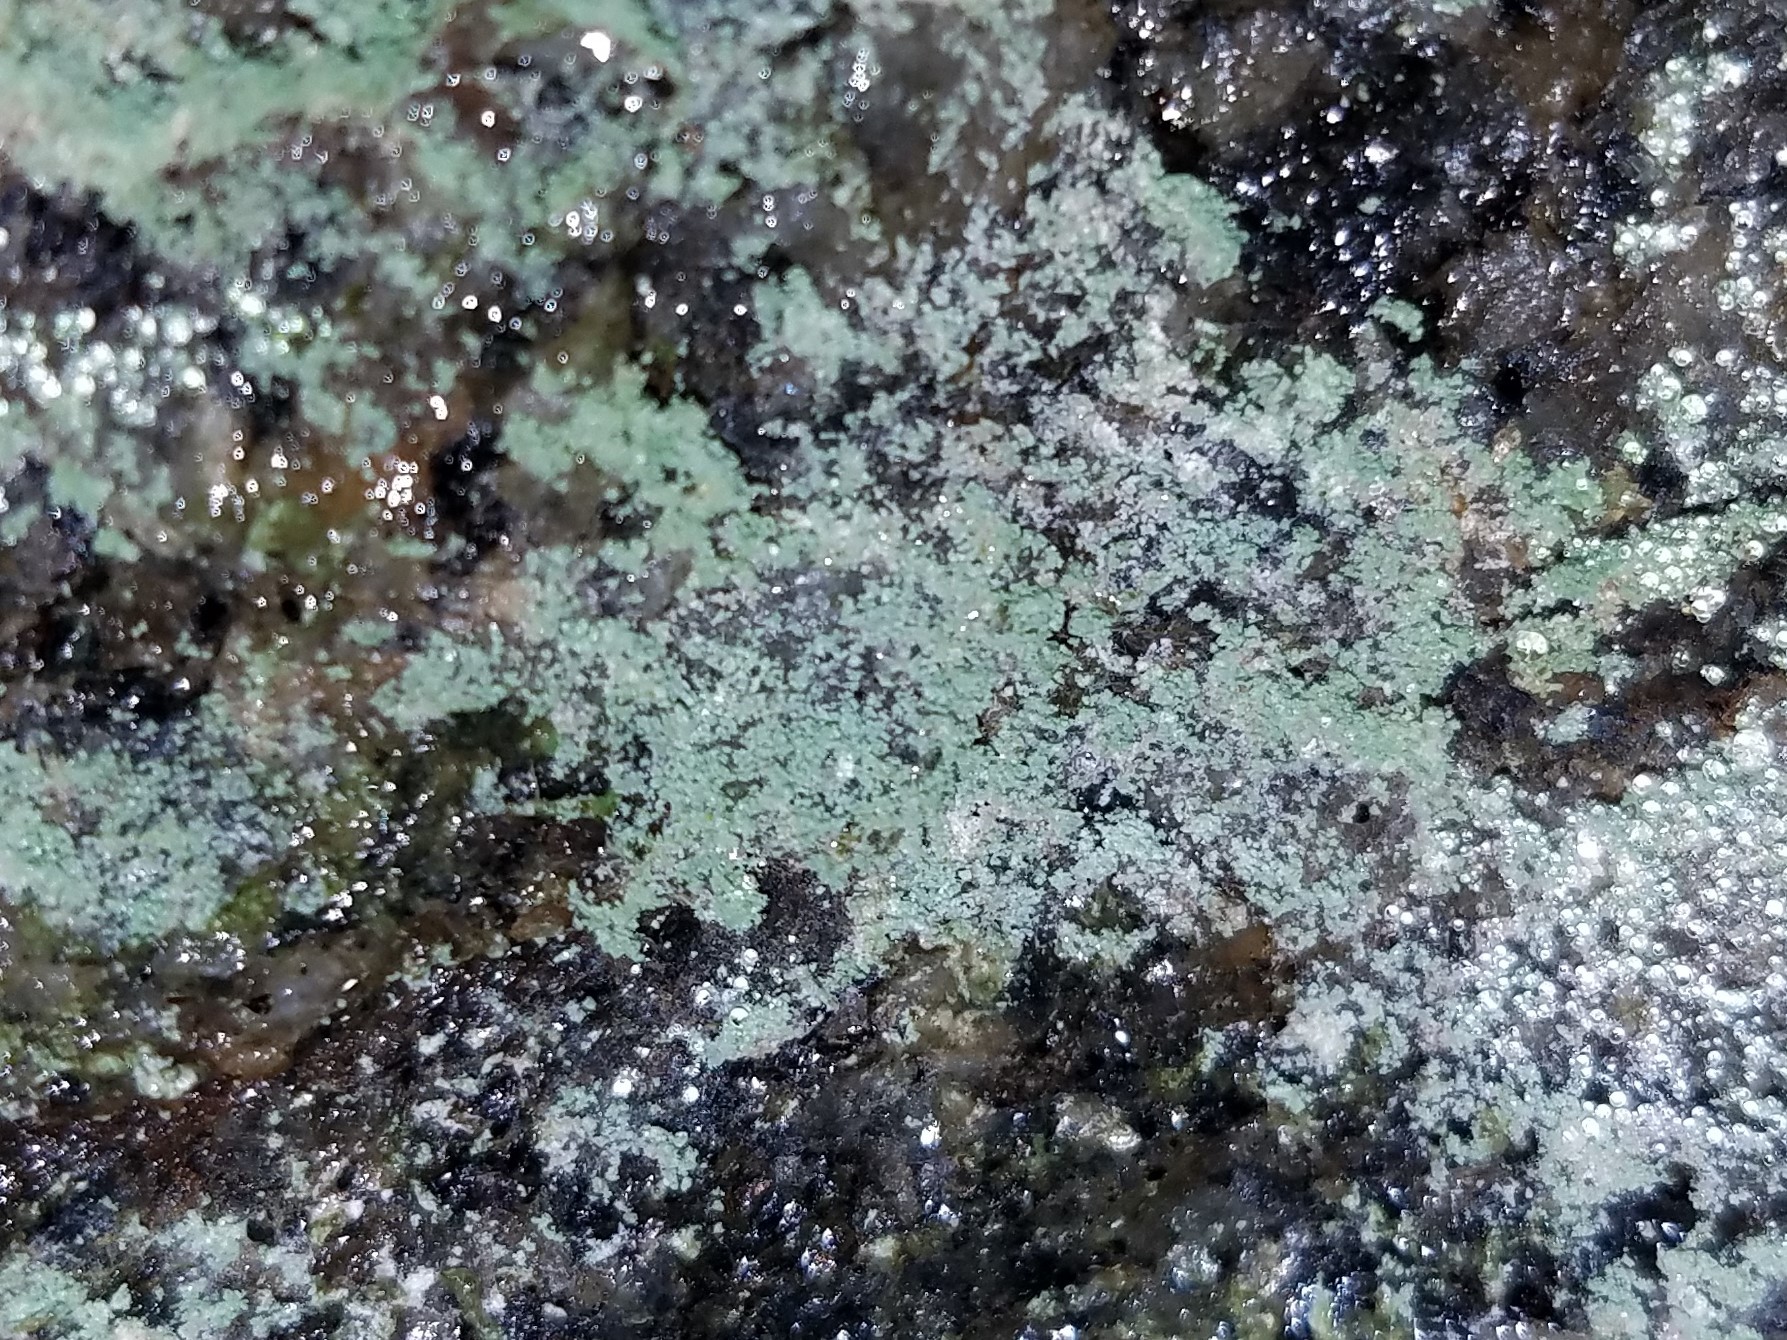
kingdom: Fungi
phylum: Ascomycota
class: Lecanoromycetes
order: Lecanorales
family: Stereocaulaceae
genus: Lepraria
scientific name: Lepraria neglecta
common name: Zoned dust lichen
